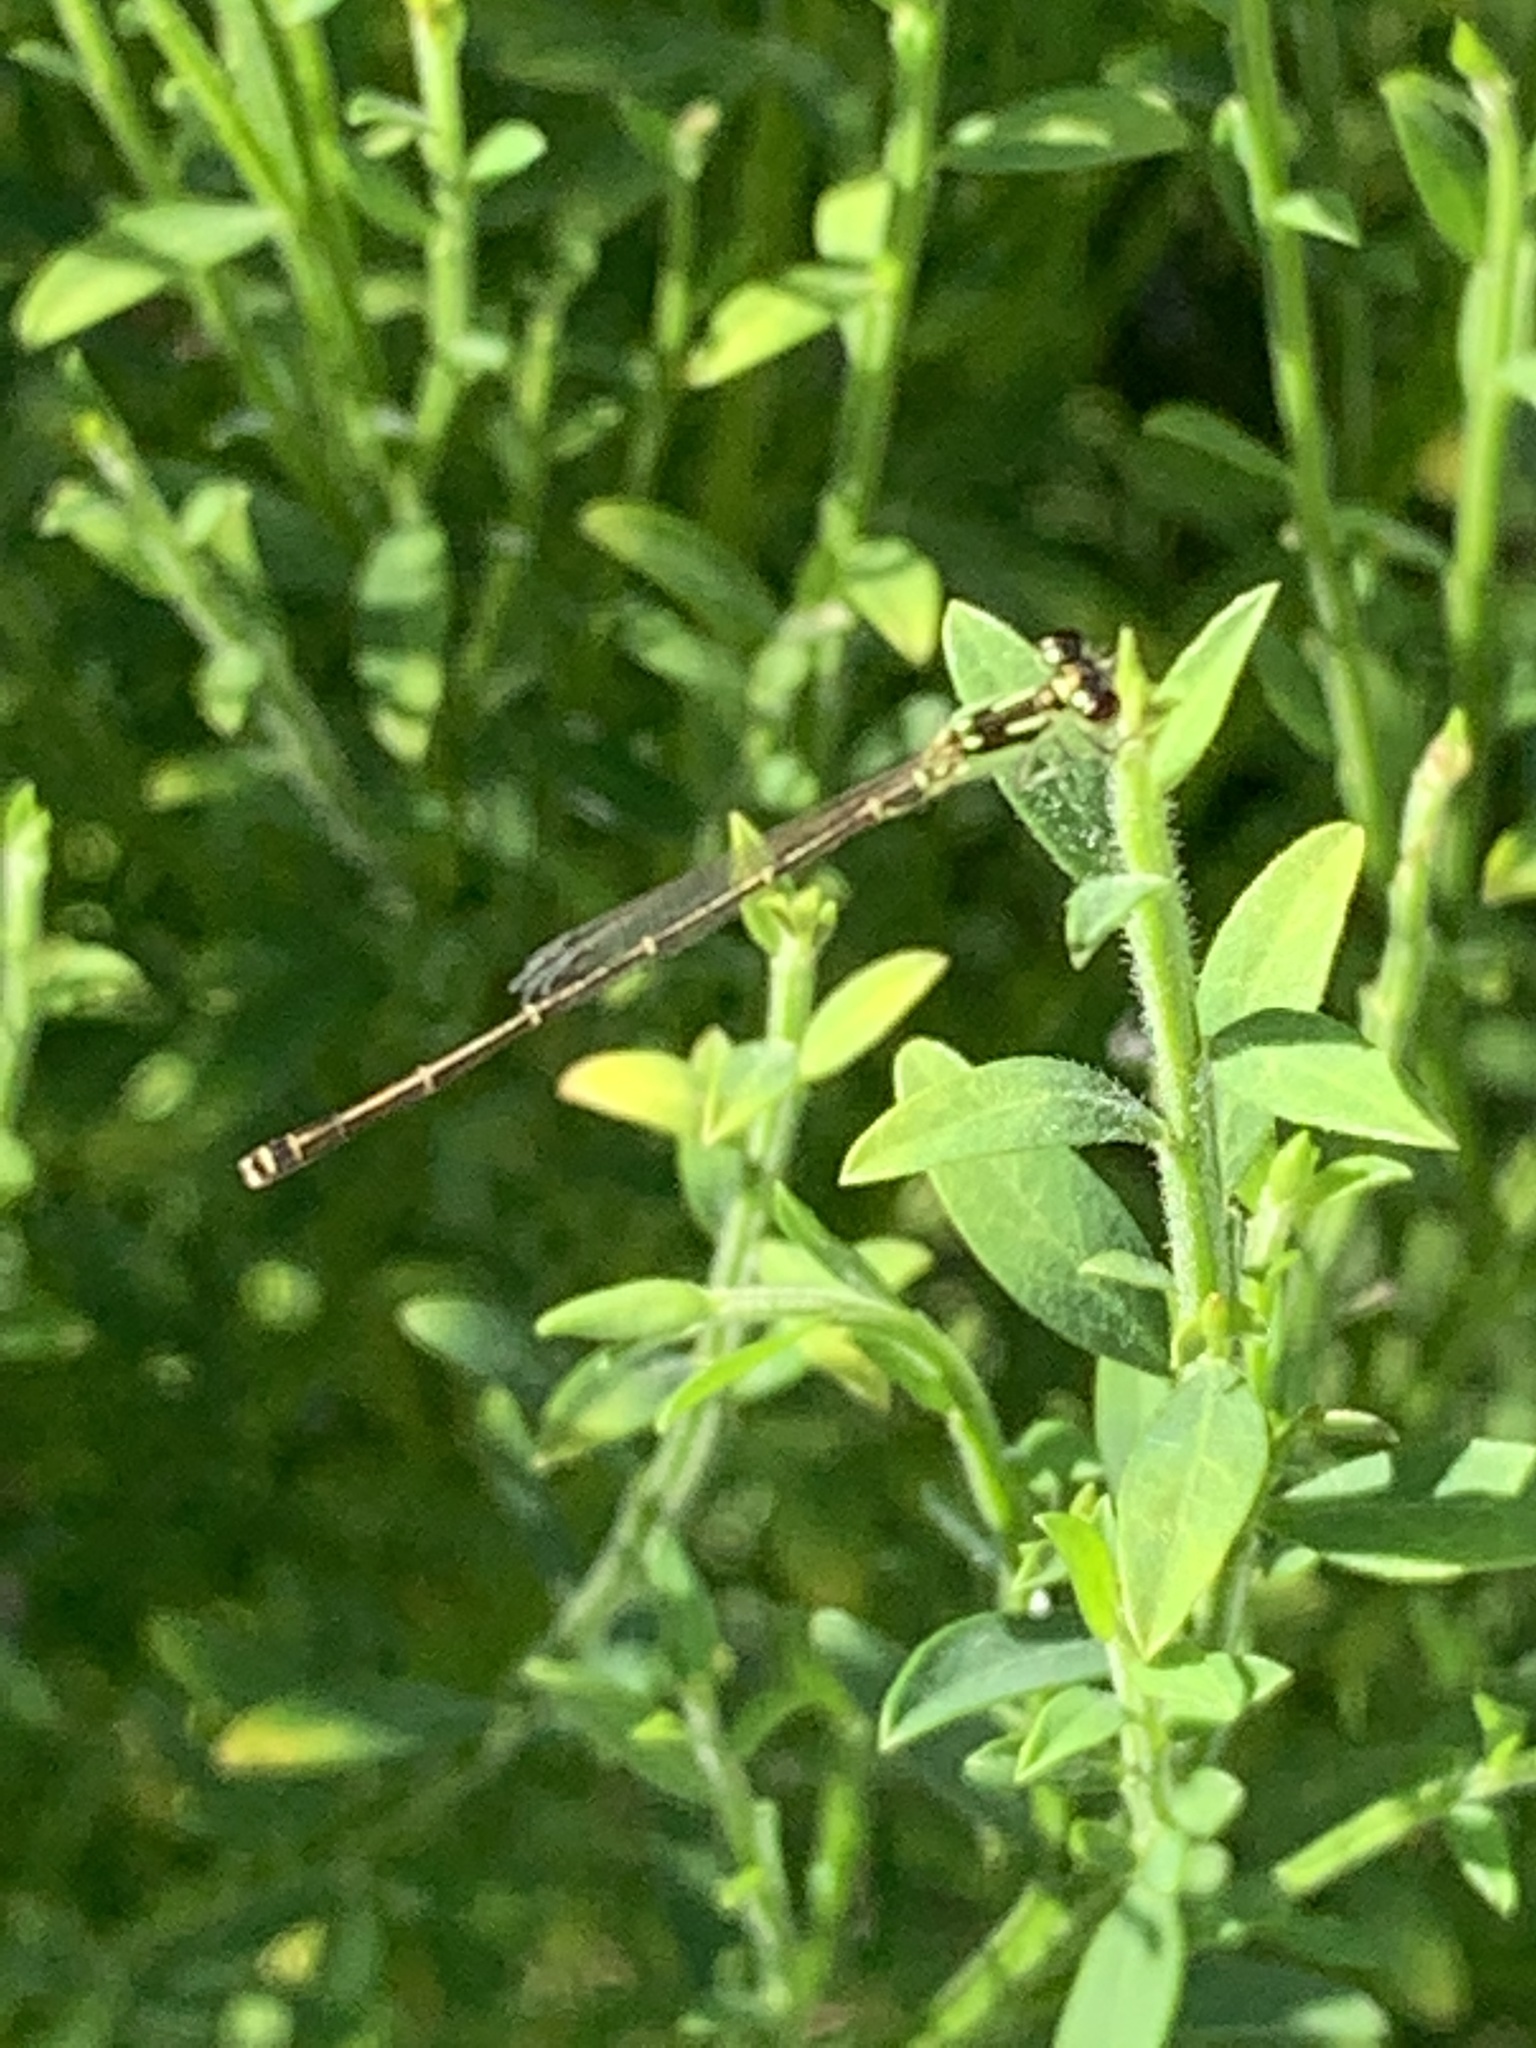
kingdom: Animalia
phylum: Arthropoda
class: Insecta
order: Odonata
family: Coenagrionidae
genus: Ischnura
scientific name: Ischnura posita
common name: Fragile forktail
